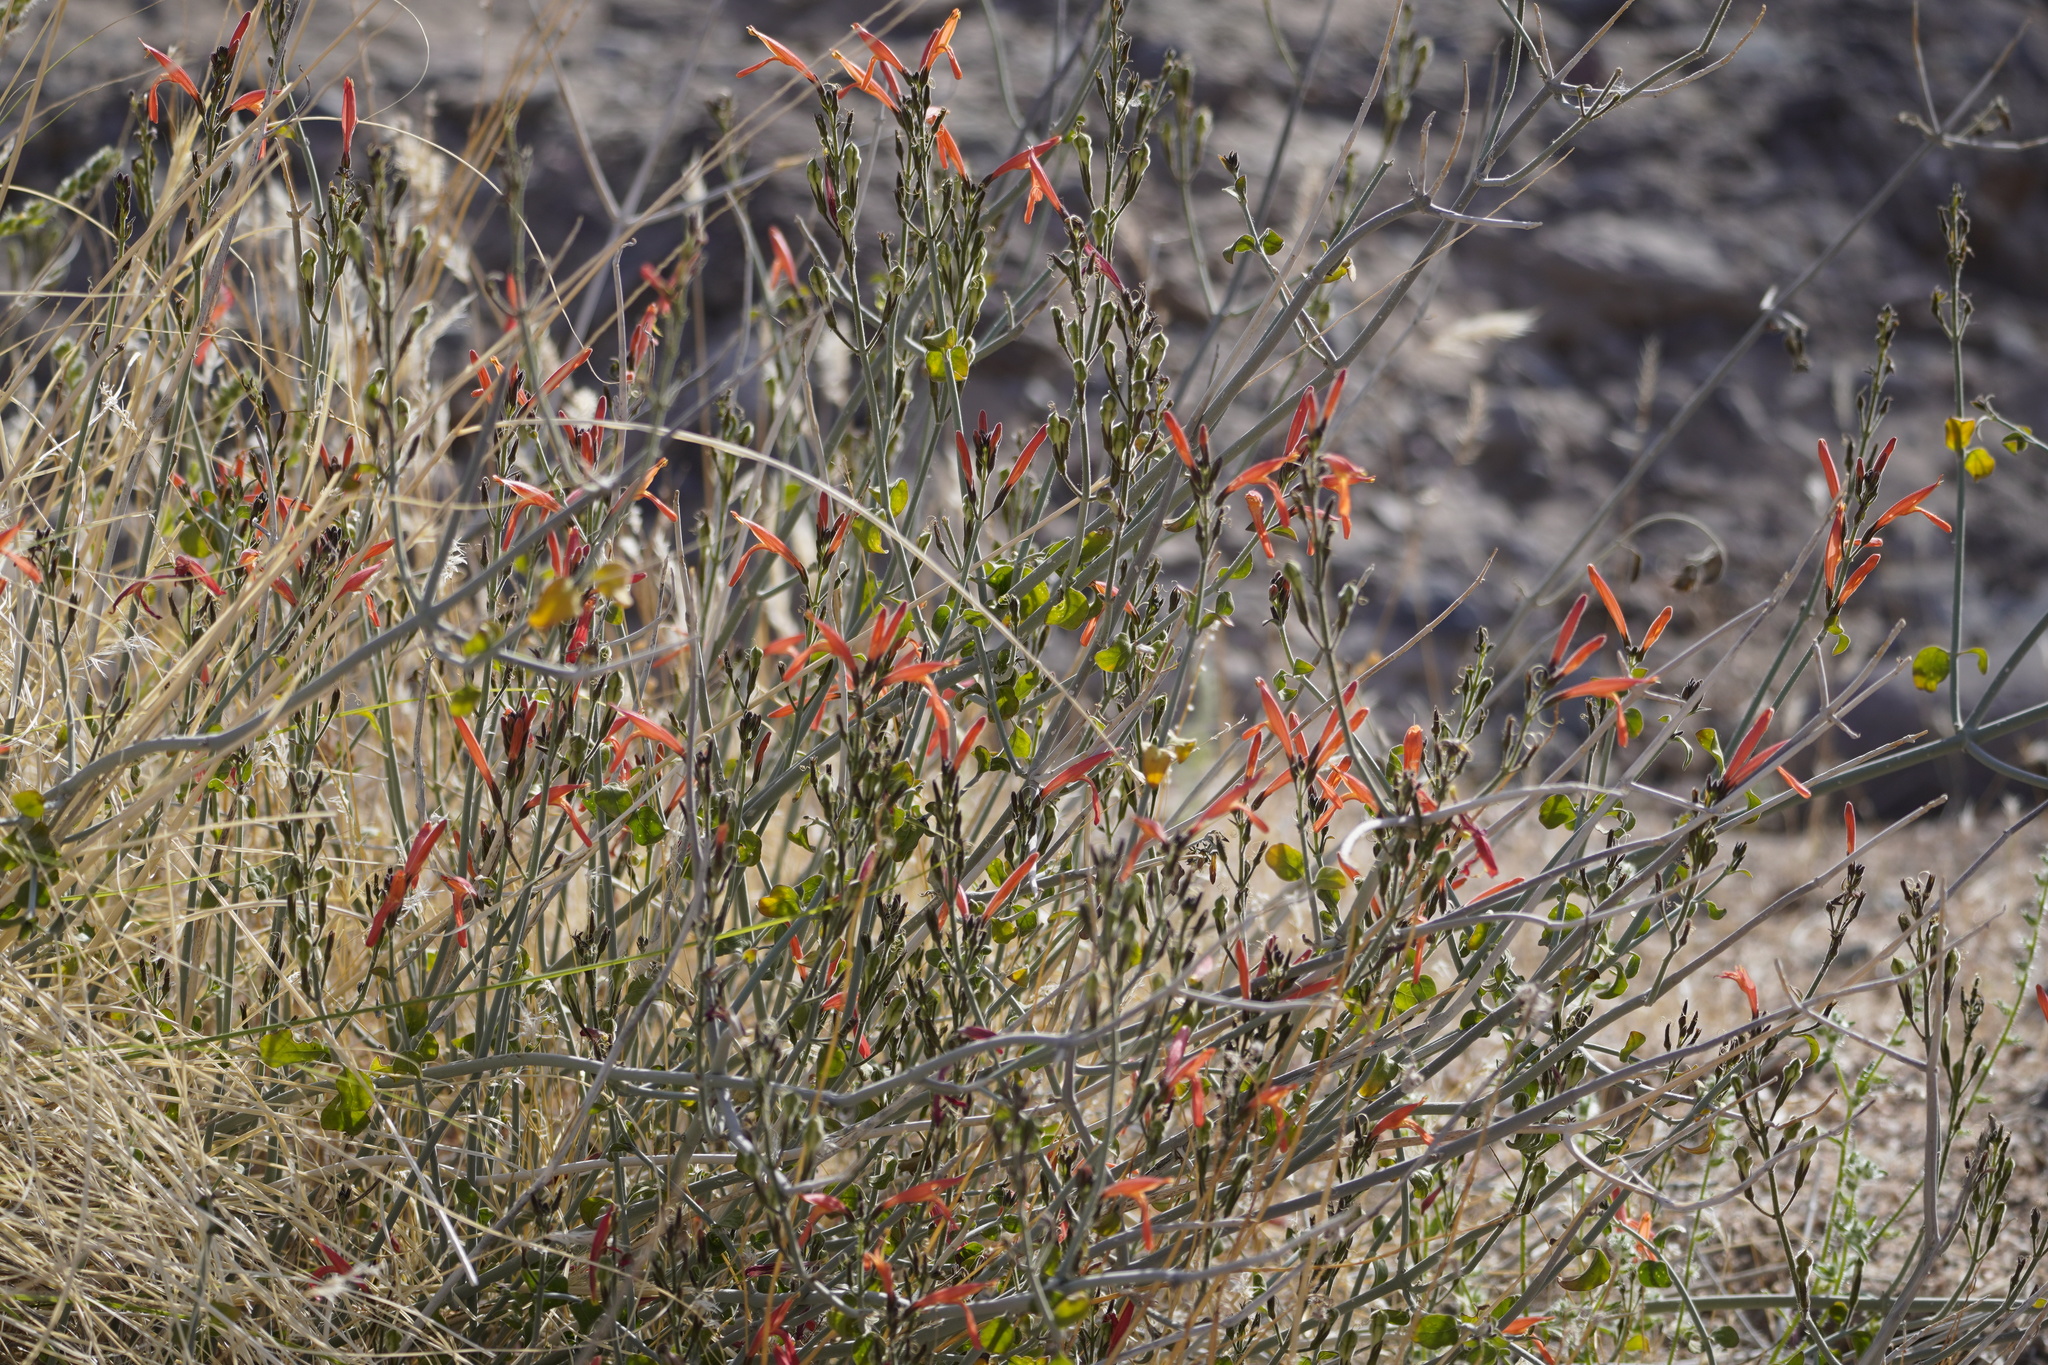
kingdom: Plantae
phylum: Tracheophyta
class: Magnoliopsida
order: Lamiales
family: Acanthaceae
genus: Justicia
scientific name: Justicia californica
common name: Chuparosa-honeysuckle
